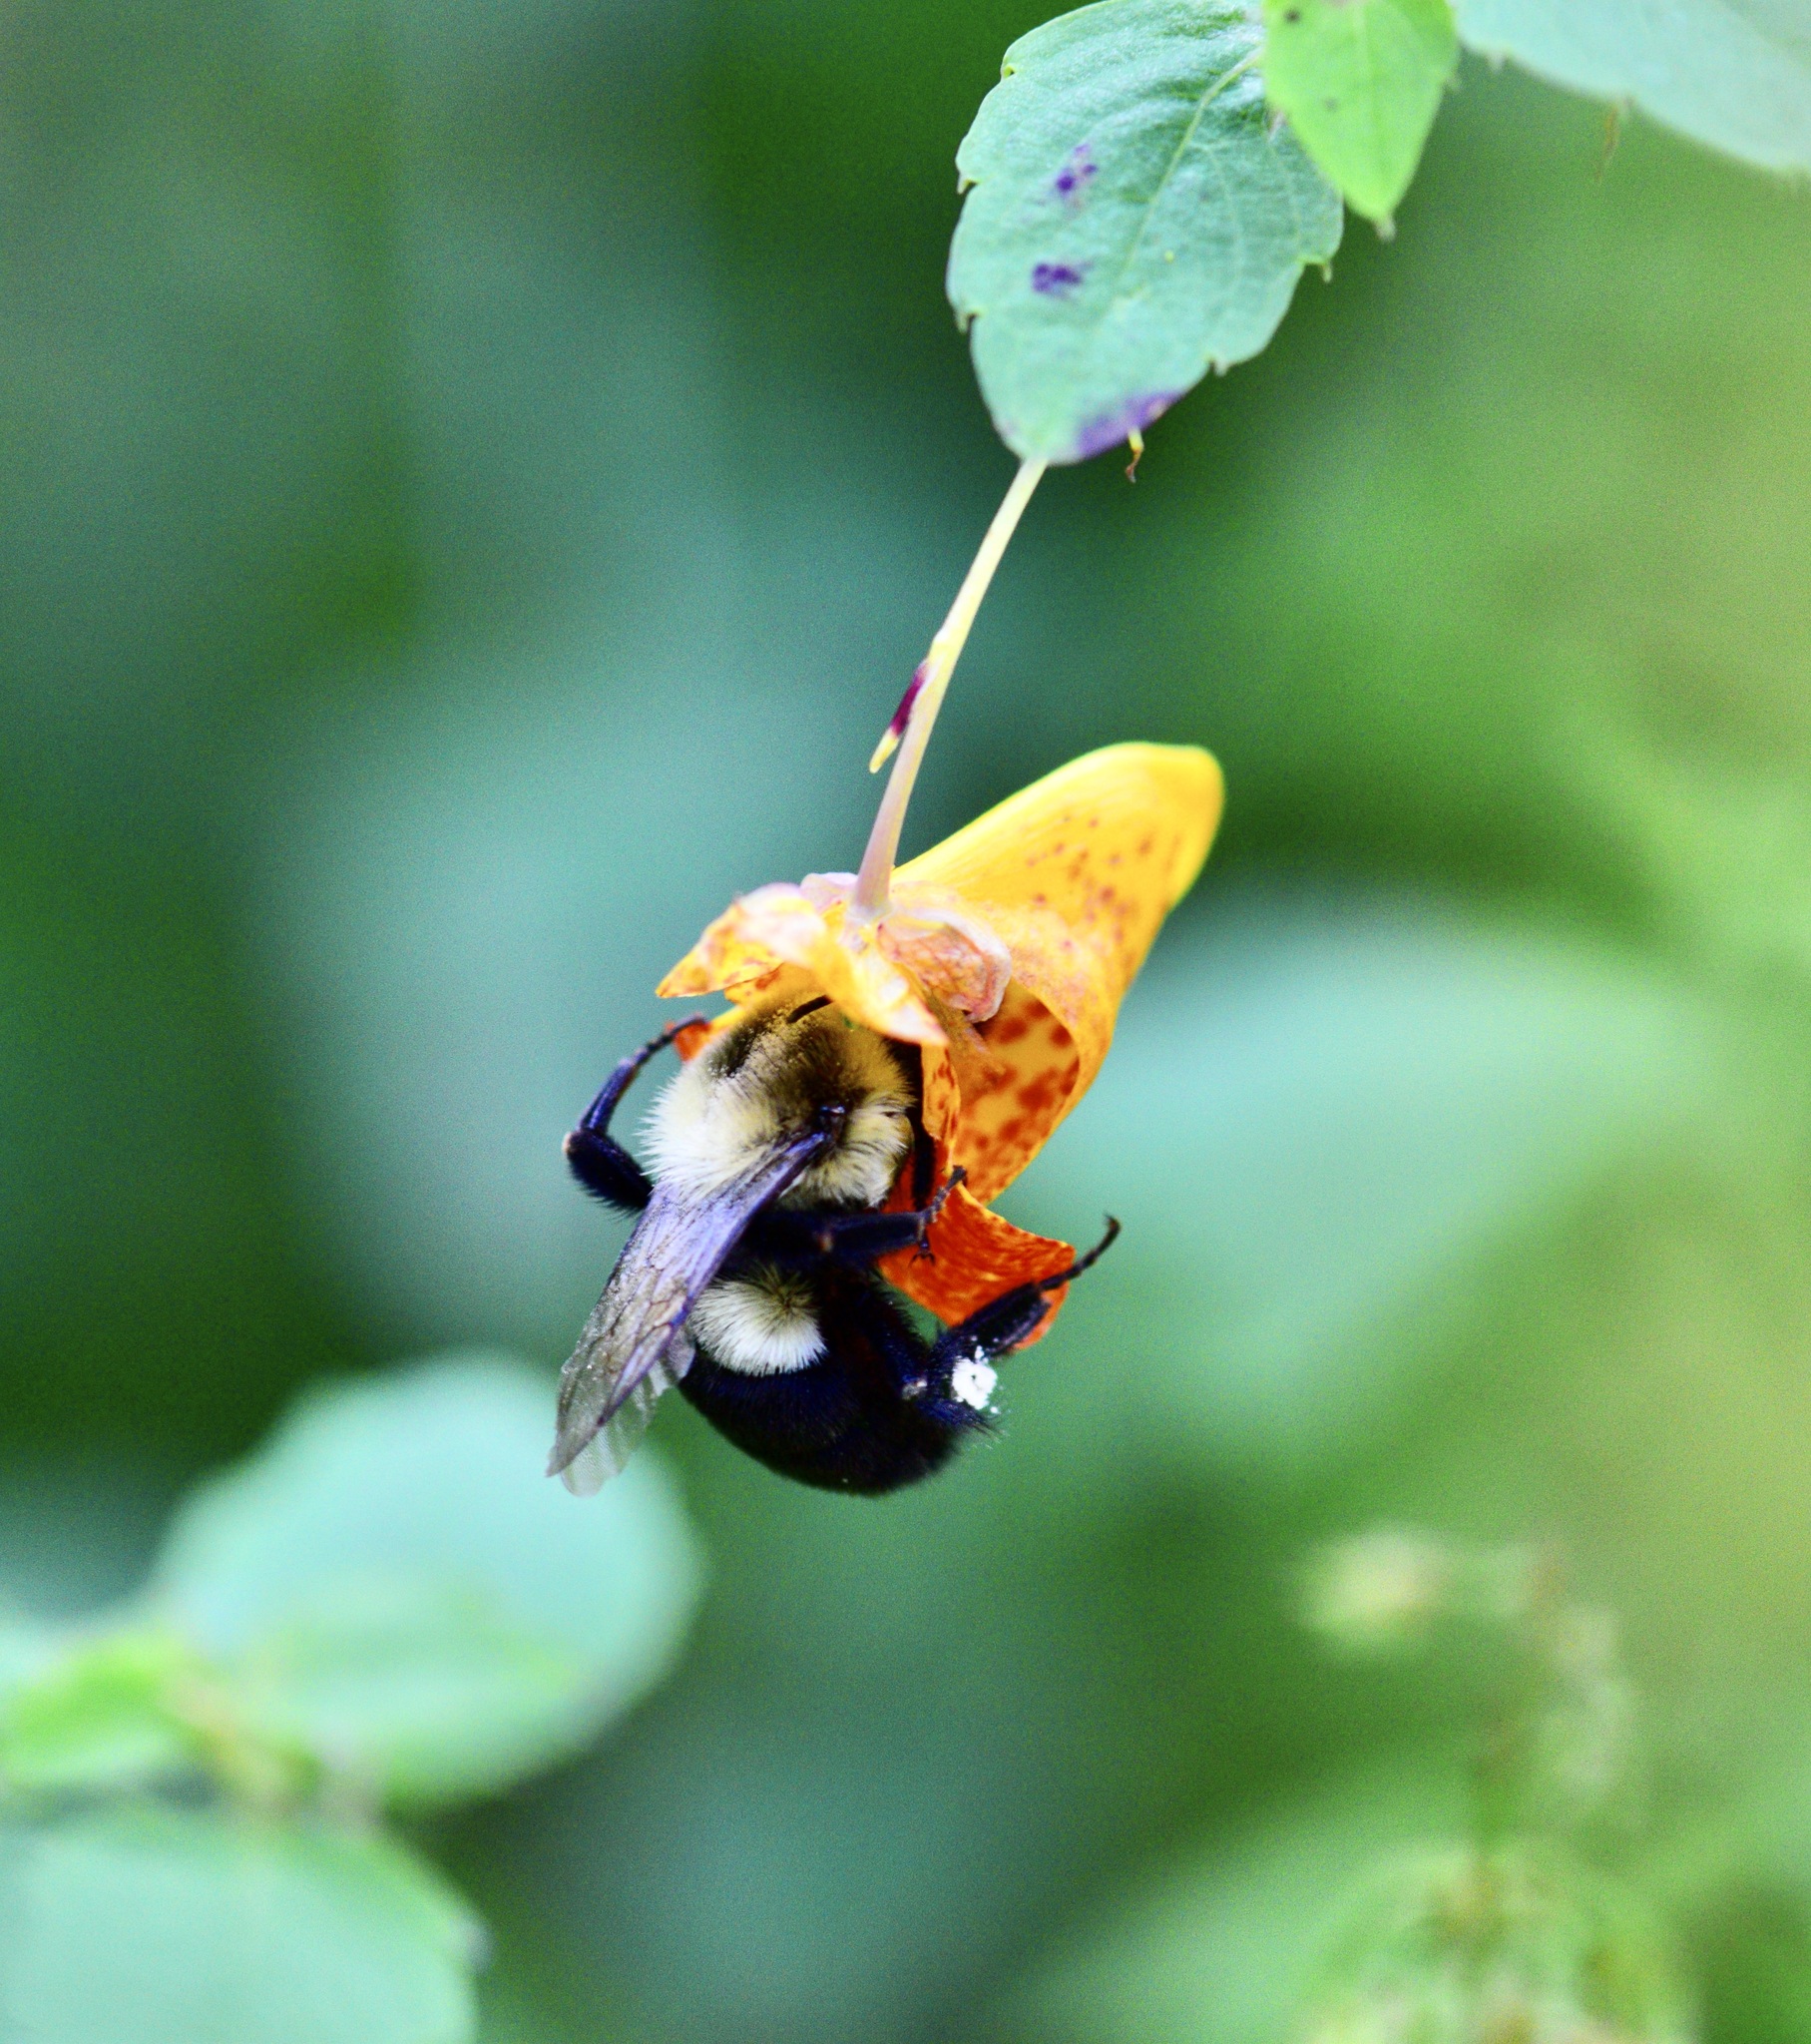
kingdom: Animalia
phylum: Arthropoda
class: Insecta
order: Hymenoptera
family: Apidae
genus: Bombus
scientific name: Bombus impatiens
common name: Common eastern bumble bee
